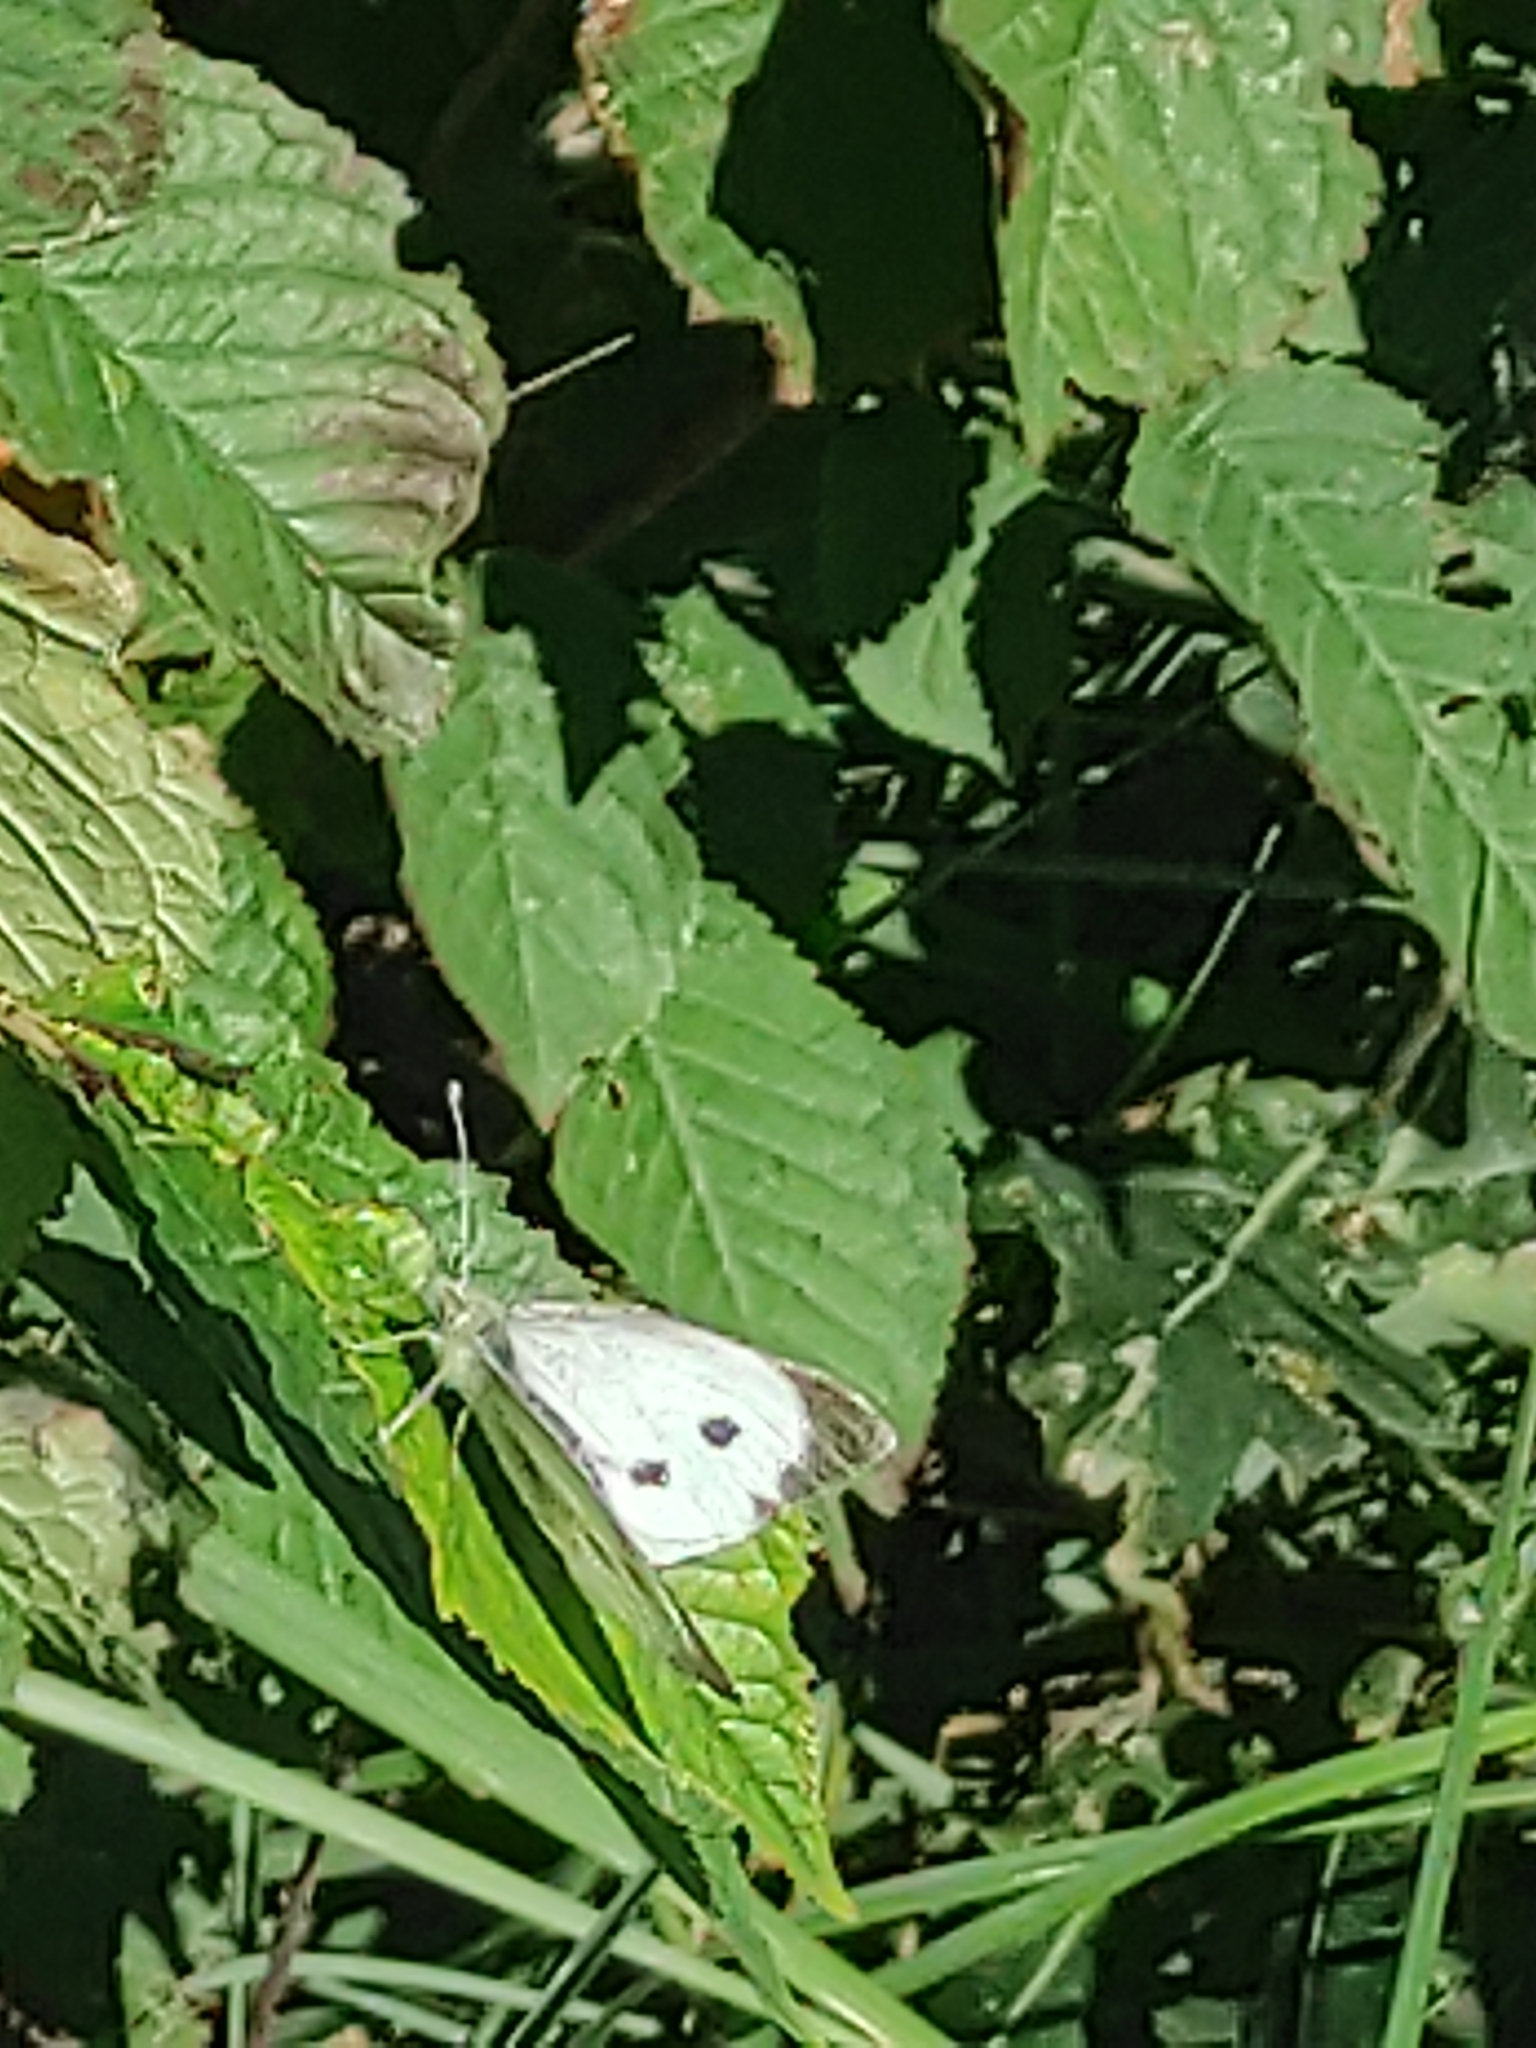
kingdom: Animalia
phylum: Arthropoda
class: Insecta
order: Lepidoptera
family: Pieridae
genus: Pieris
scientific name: Pieris brassicae
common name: Large white
